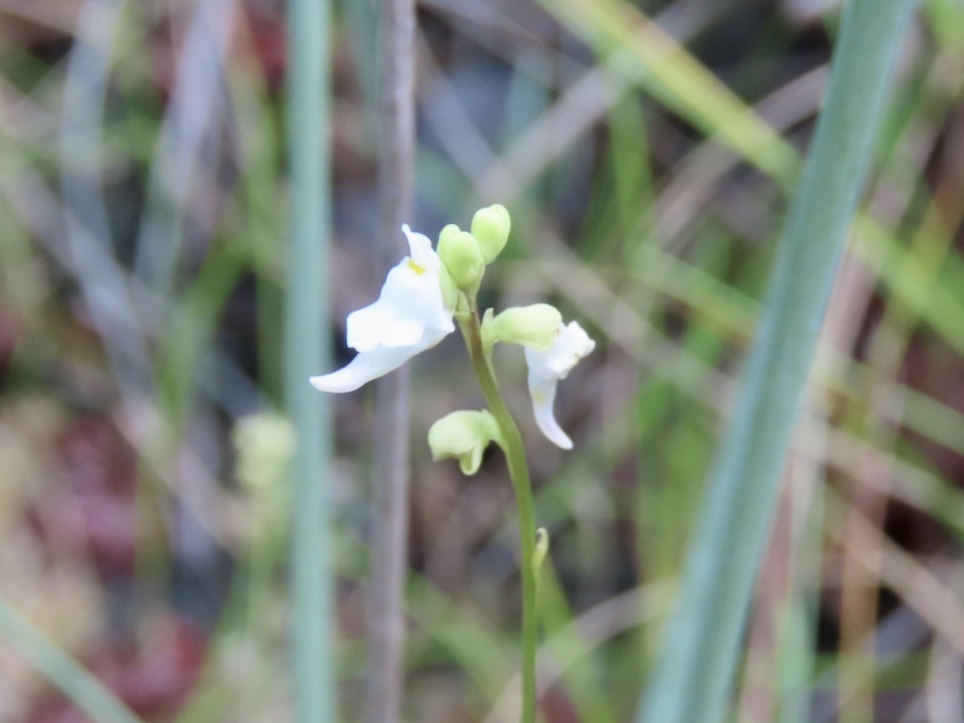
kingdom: Plantae
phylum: Tracheophyta
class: Magnoliopsida
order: Lamiales
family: Lentibulariaceae
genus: Utricularia
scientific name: Utricularia caerulea
